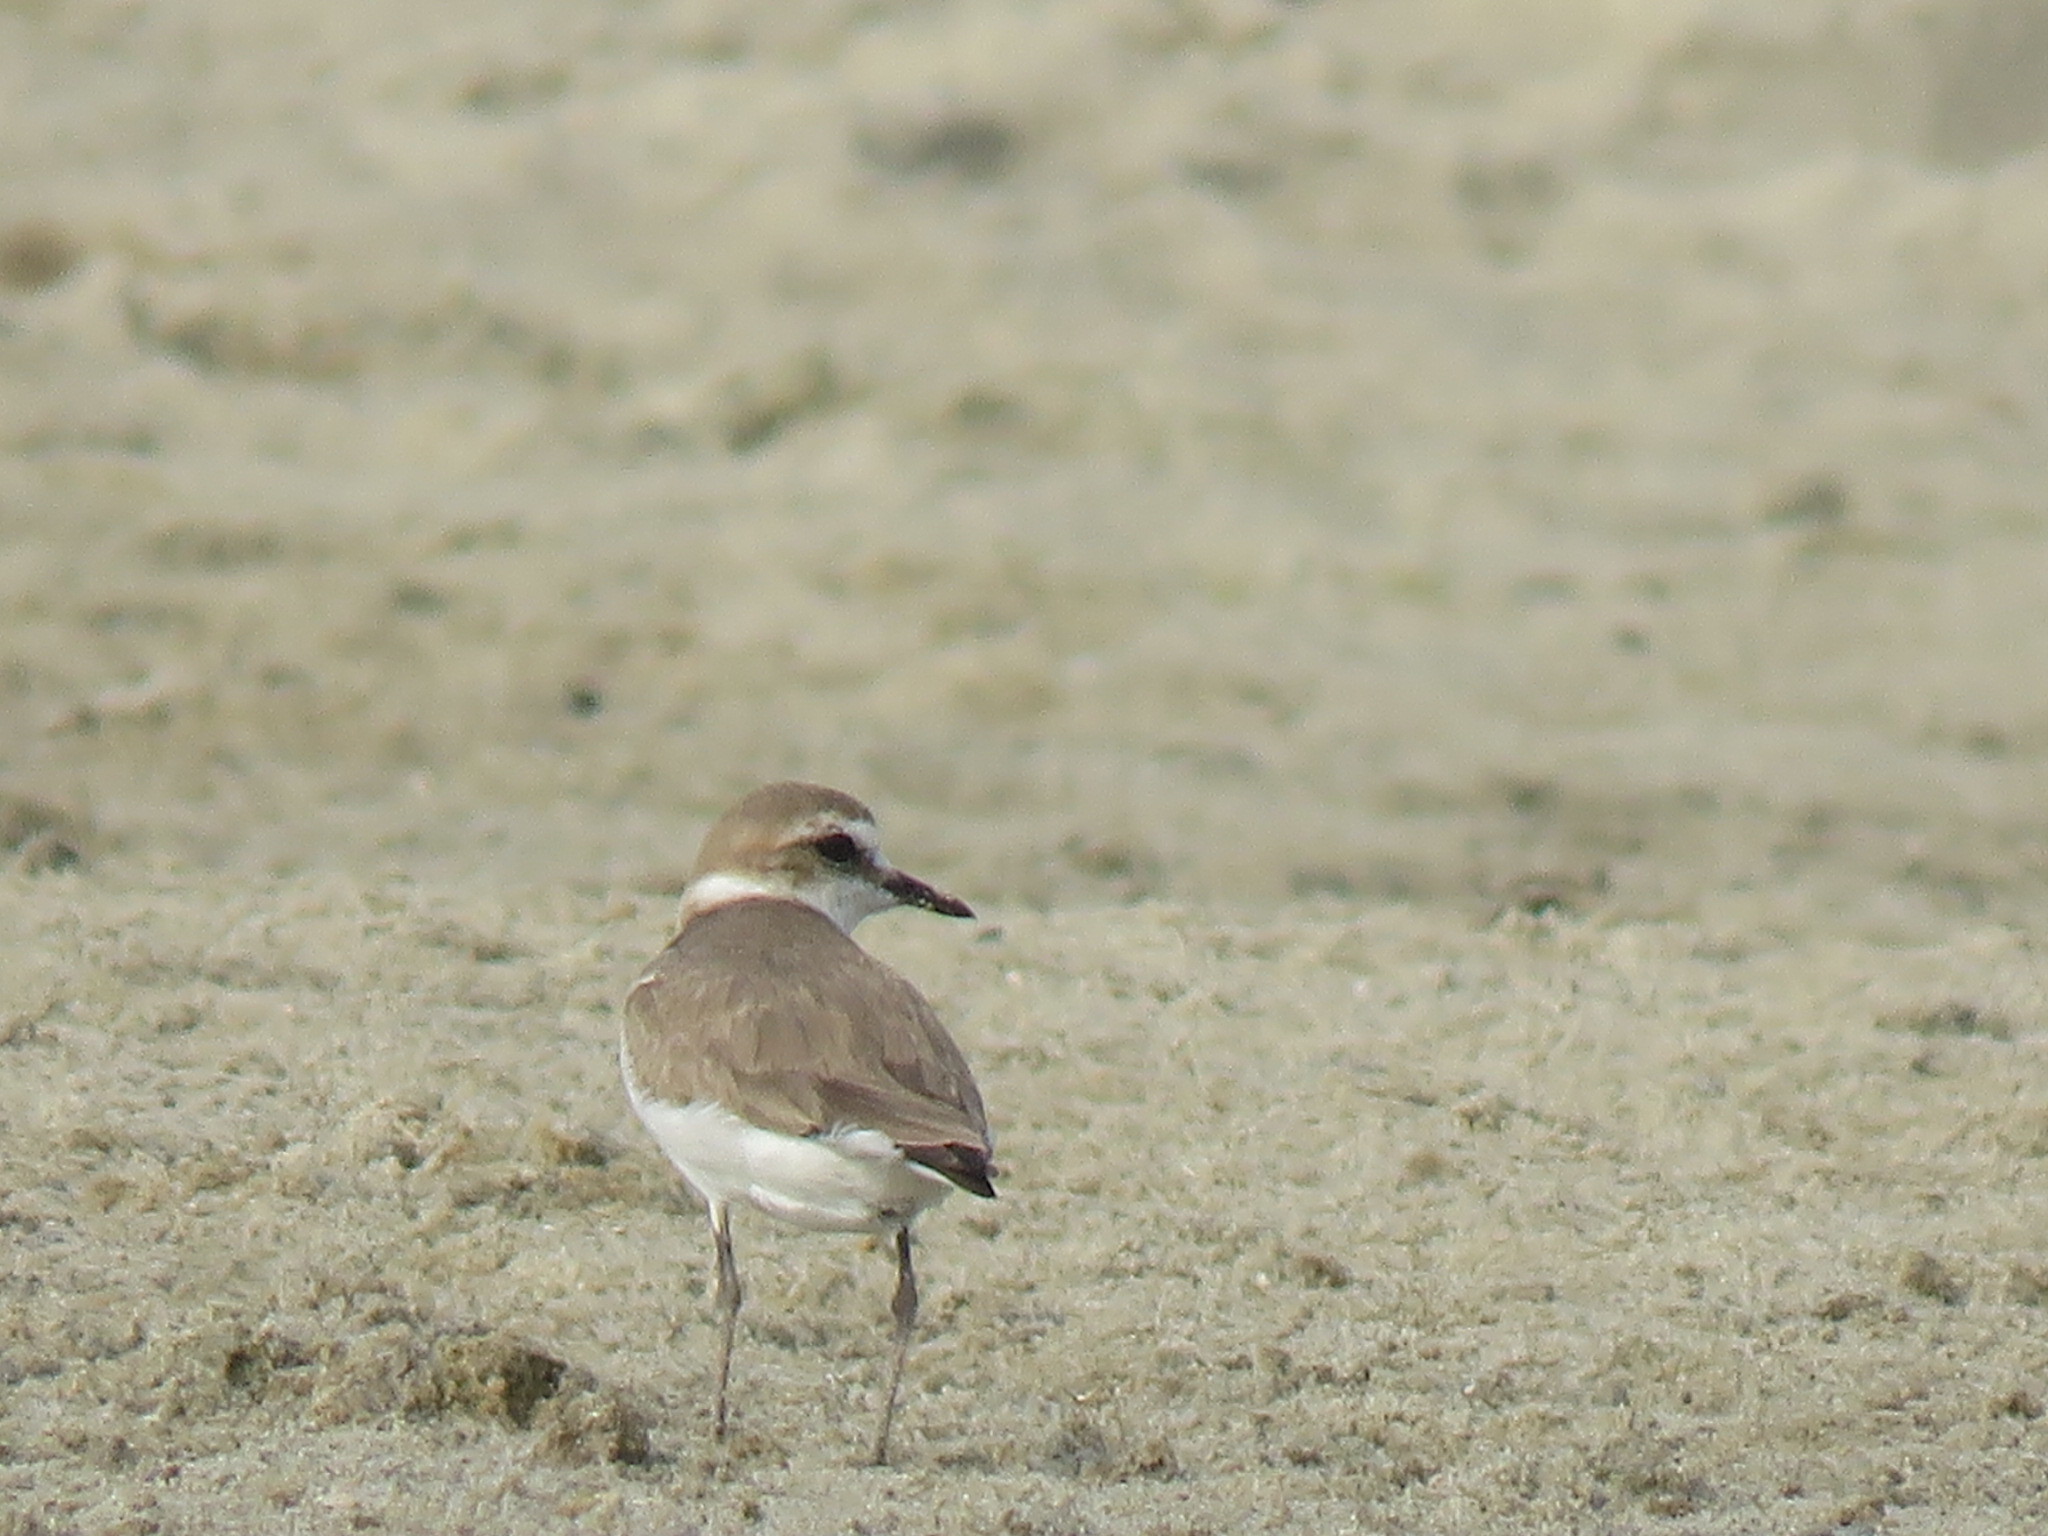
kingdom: Animalia
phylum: Chordata
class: Aves
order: Charadriiformes
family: Charadriidae
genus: Charadrius
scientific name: Charadrius alexandrinus
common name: Kentish plover
